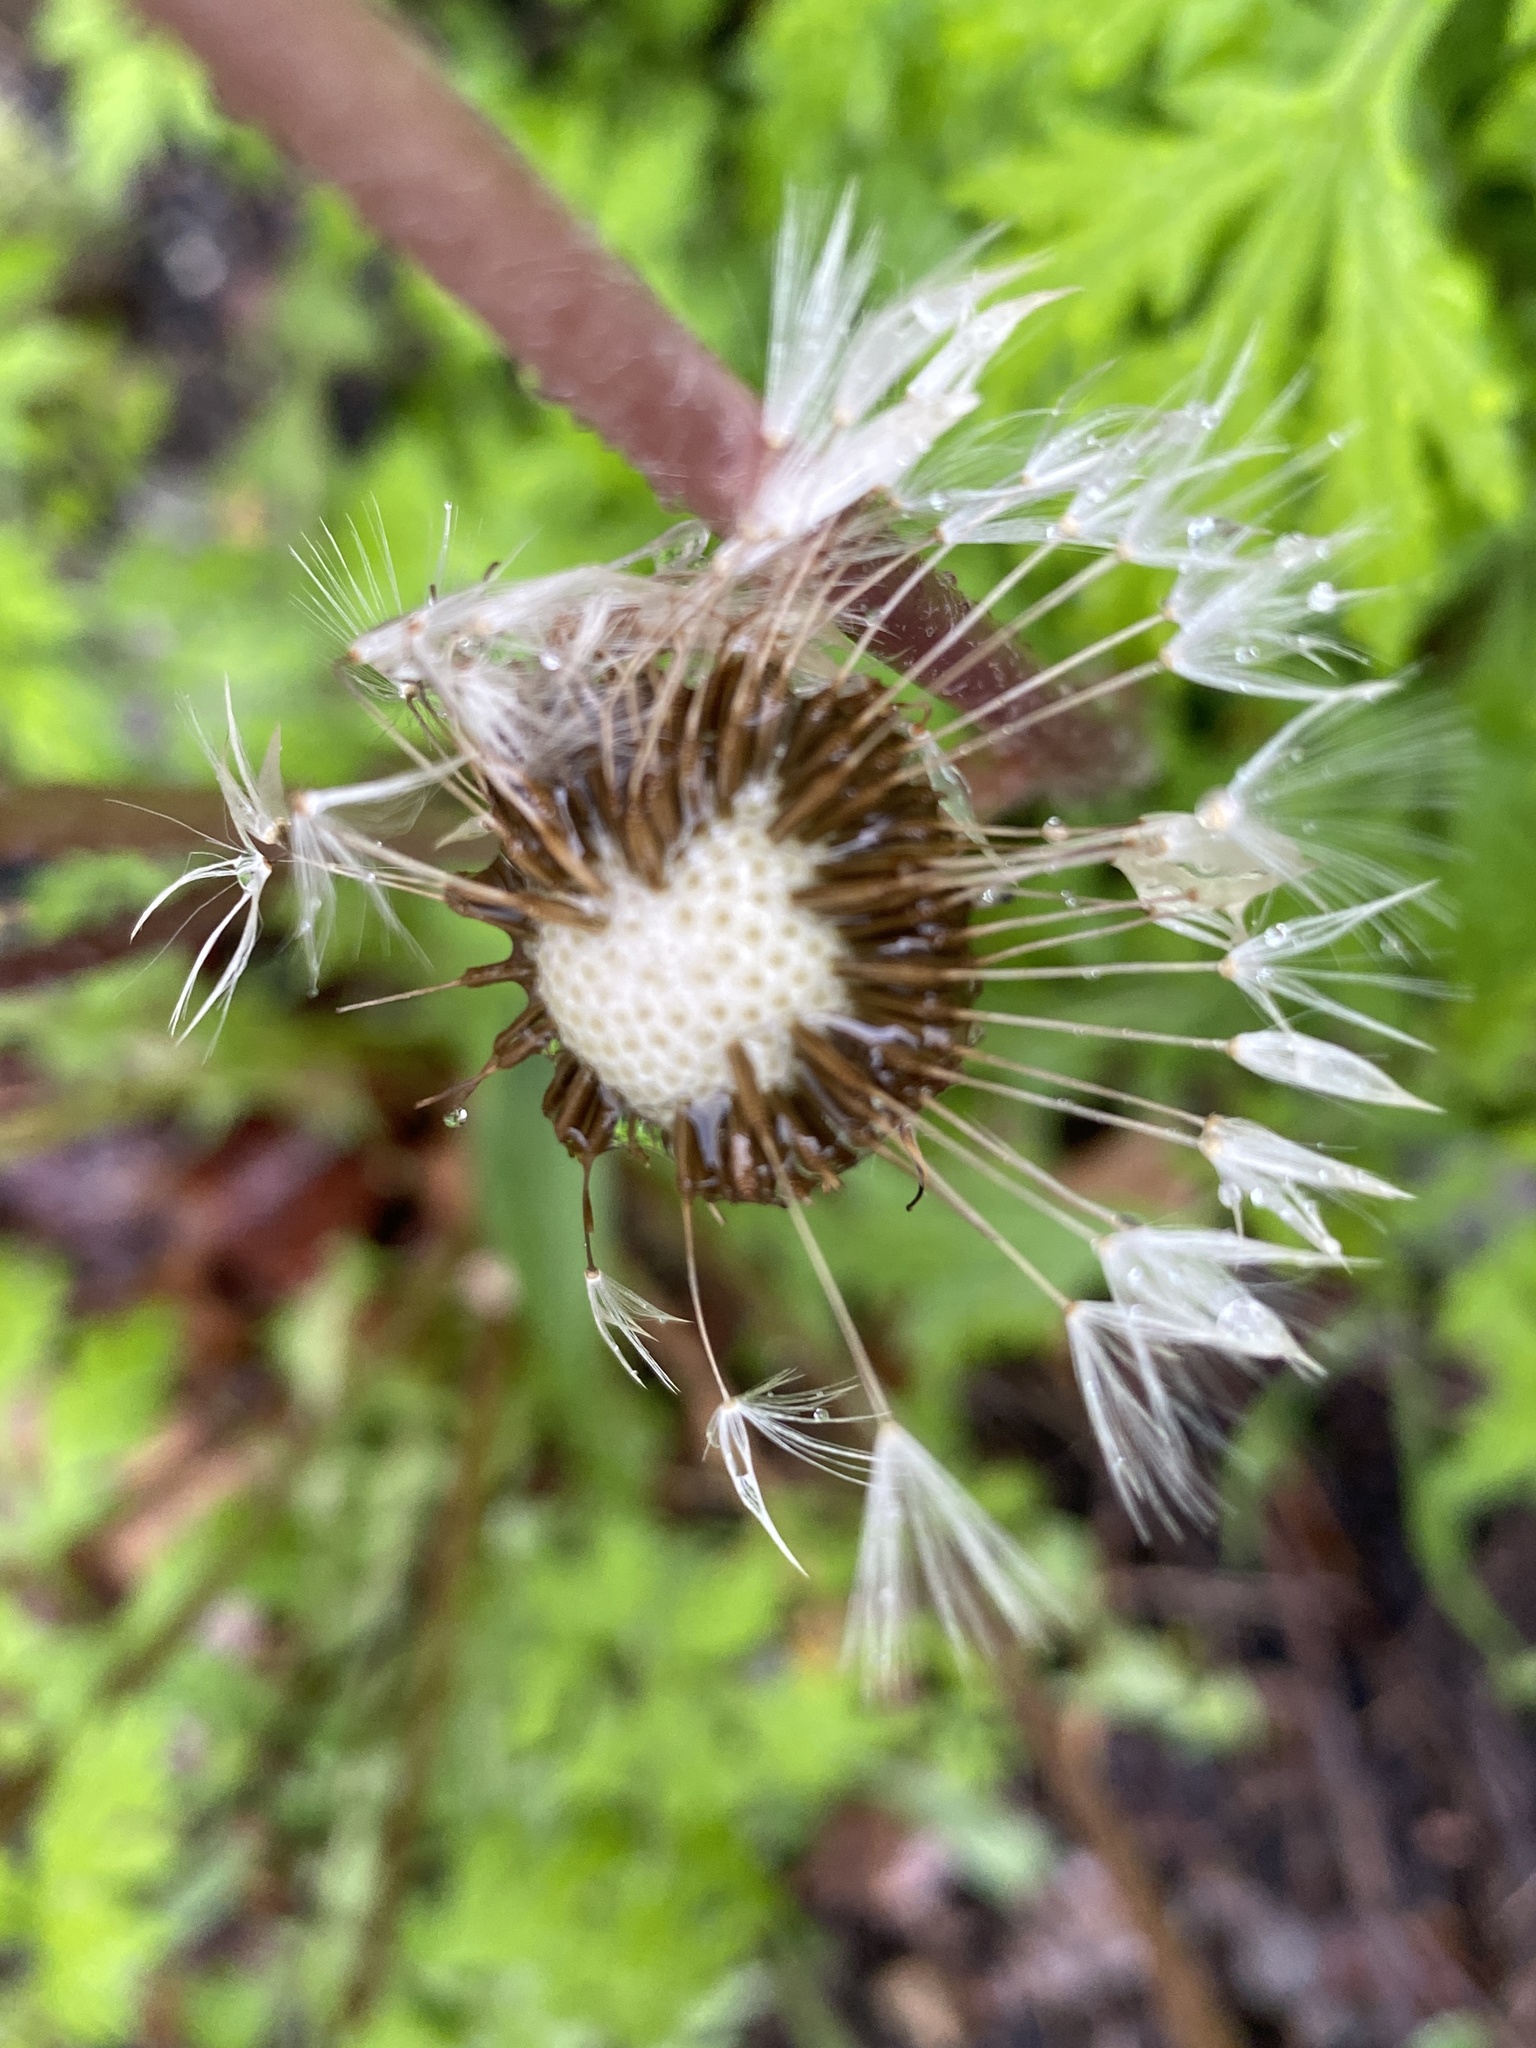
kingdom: Plantae
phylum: Tracheophyta
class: Magnoliopsida
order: Asterales
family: Asteraceae
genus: Taraxacum
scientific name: Taraxacum officinale
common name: Common dandelion
